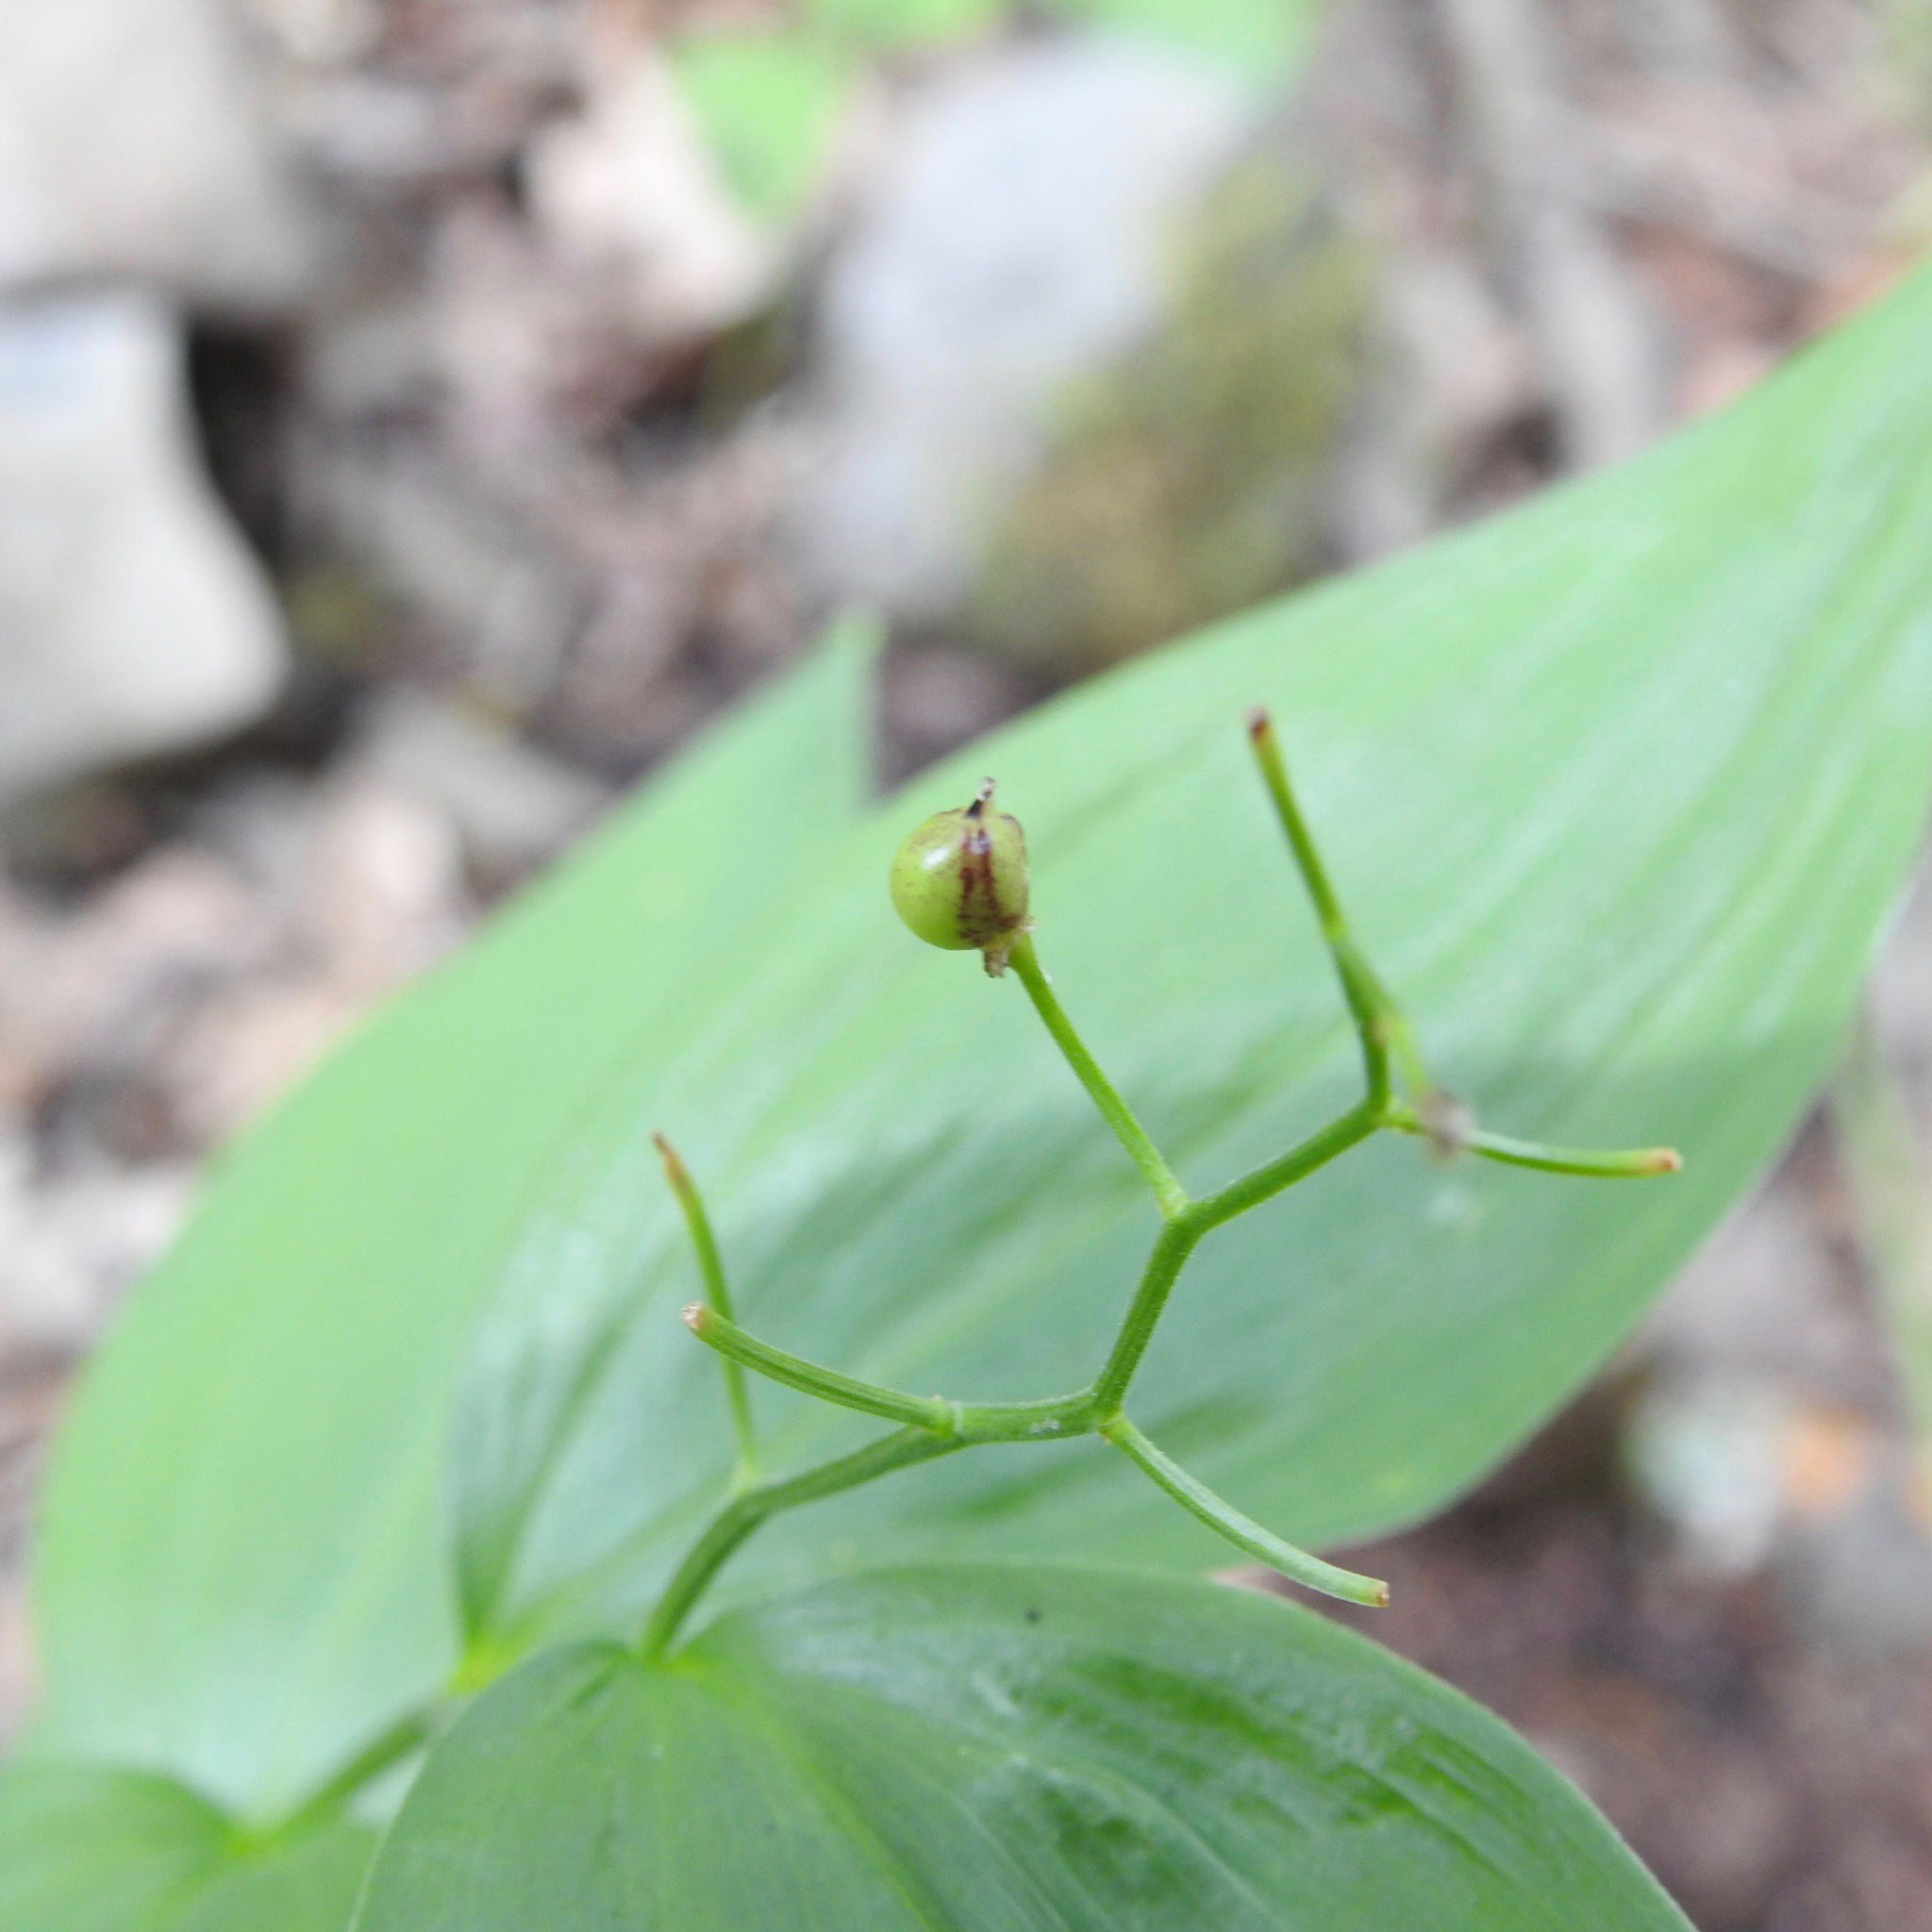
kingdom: Plantae
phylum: Tracheophyta
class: Liliopsida
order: Asparagales
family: Asparagaceae
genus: Maianthemum
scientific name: Maianthemum stellatum
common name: Little false solomon's seal
